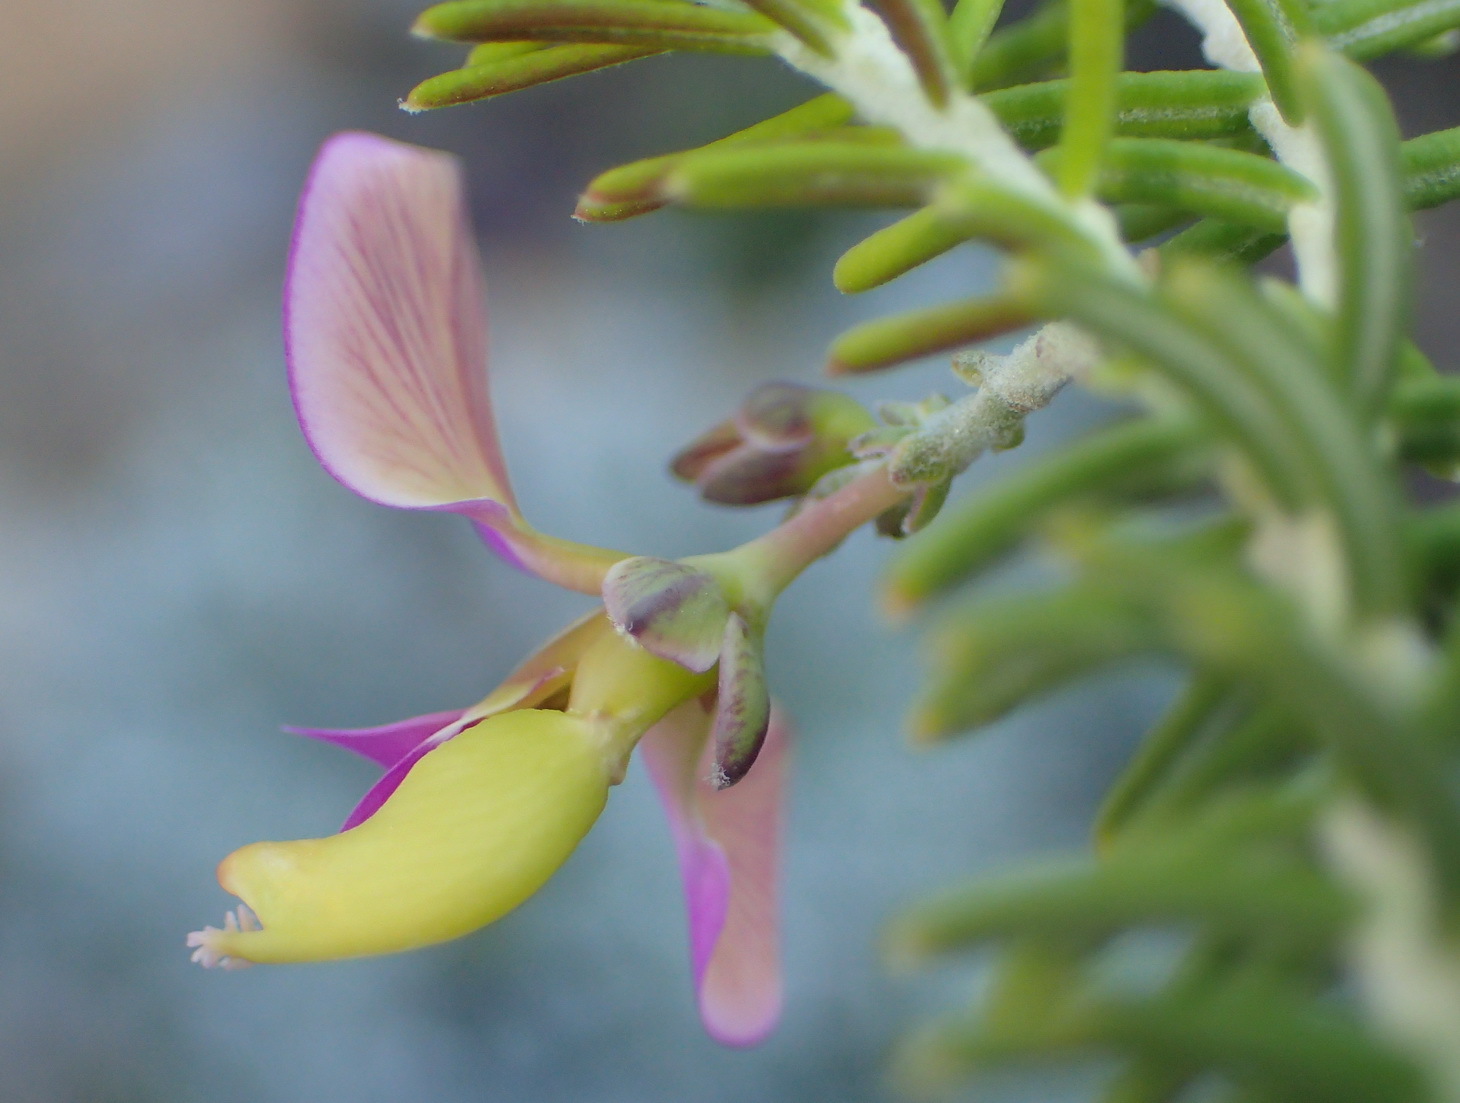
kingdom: Plantae
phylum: Tracheophyta
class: Magnoliopsida
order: Fabales
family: Polygalaceae
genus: Polygala
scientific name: Polygala teretifolia
